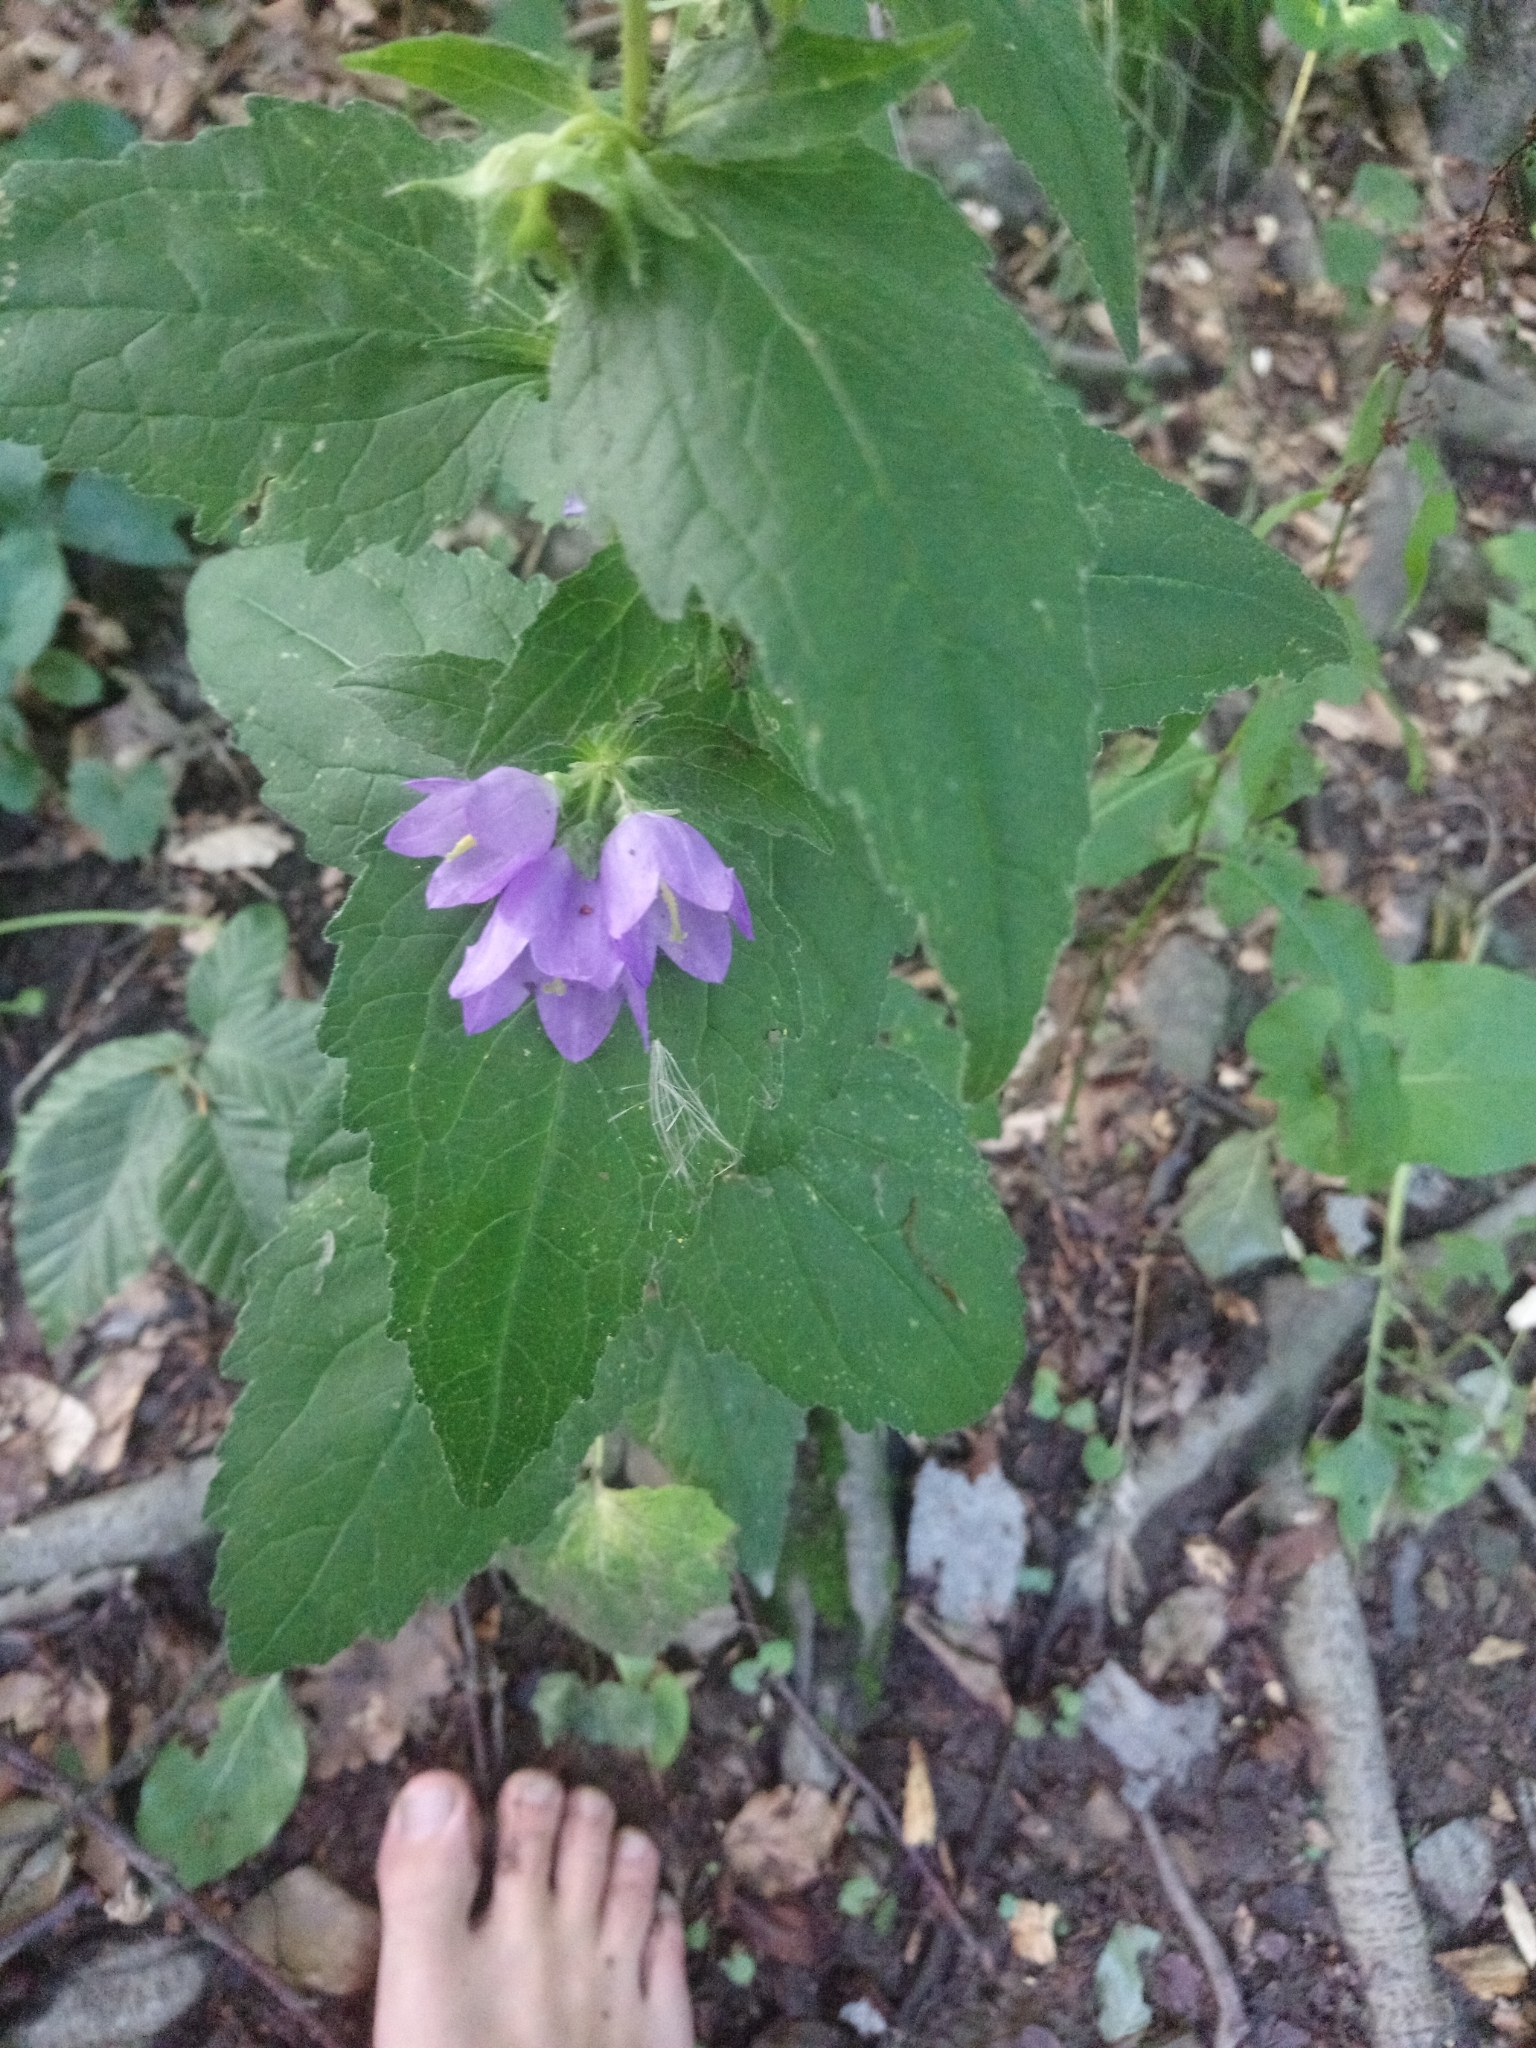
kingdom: Plantae
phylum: Tracheophyta
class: Magnoliopsida
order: Asterales
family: Campanulaceae
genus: Campanula
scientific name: Campanula trachelium
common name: Nettle-leaved bellflower
